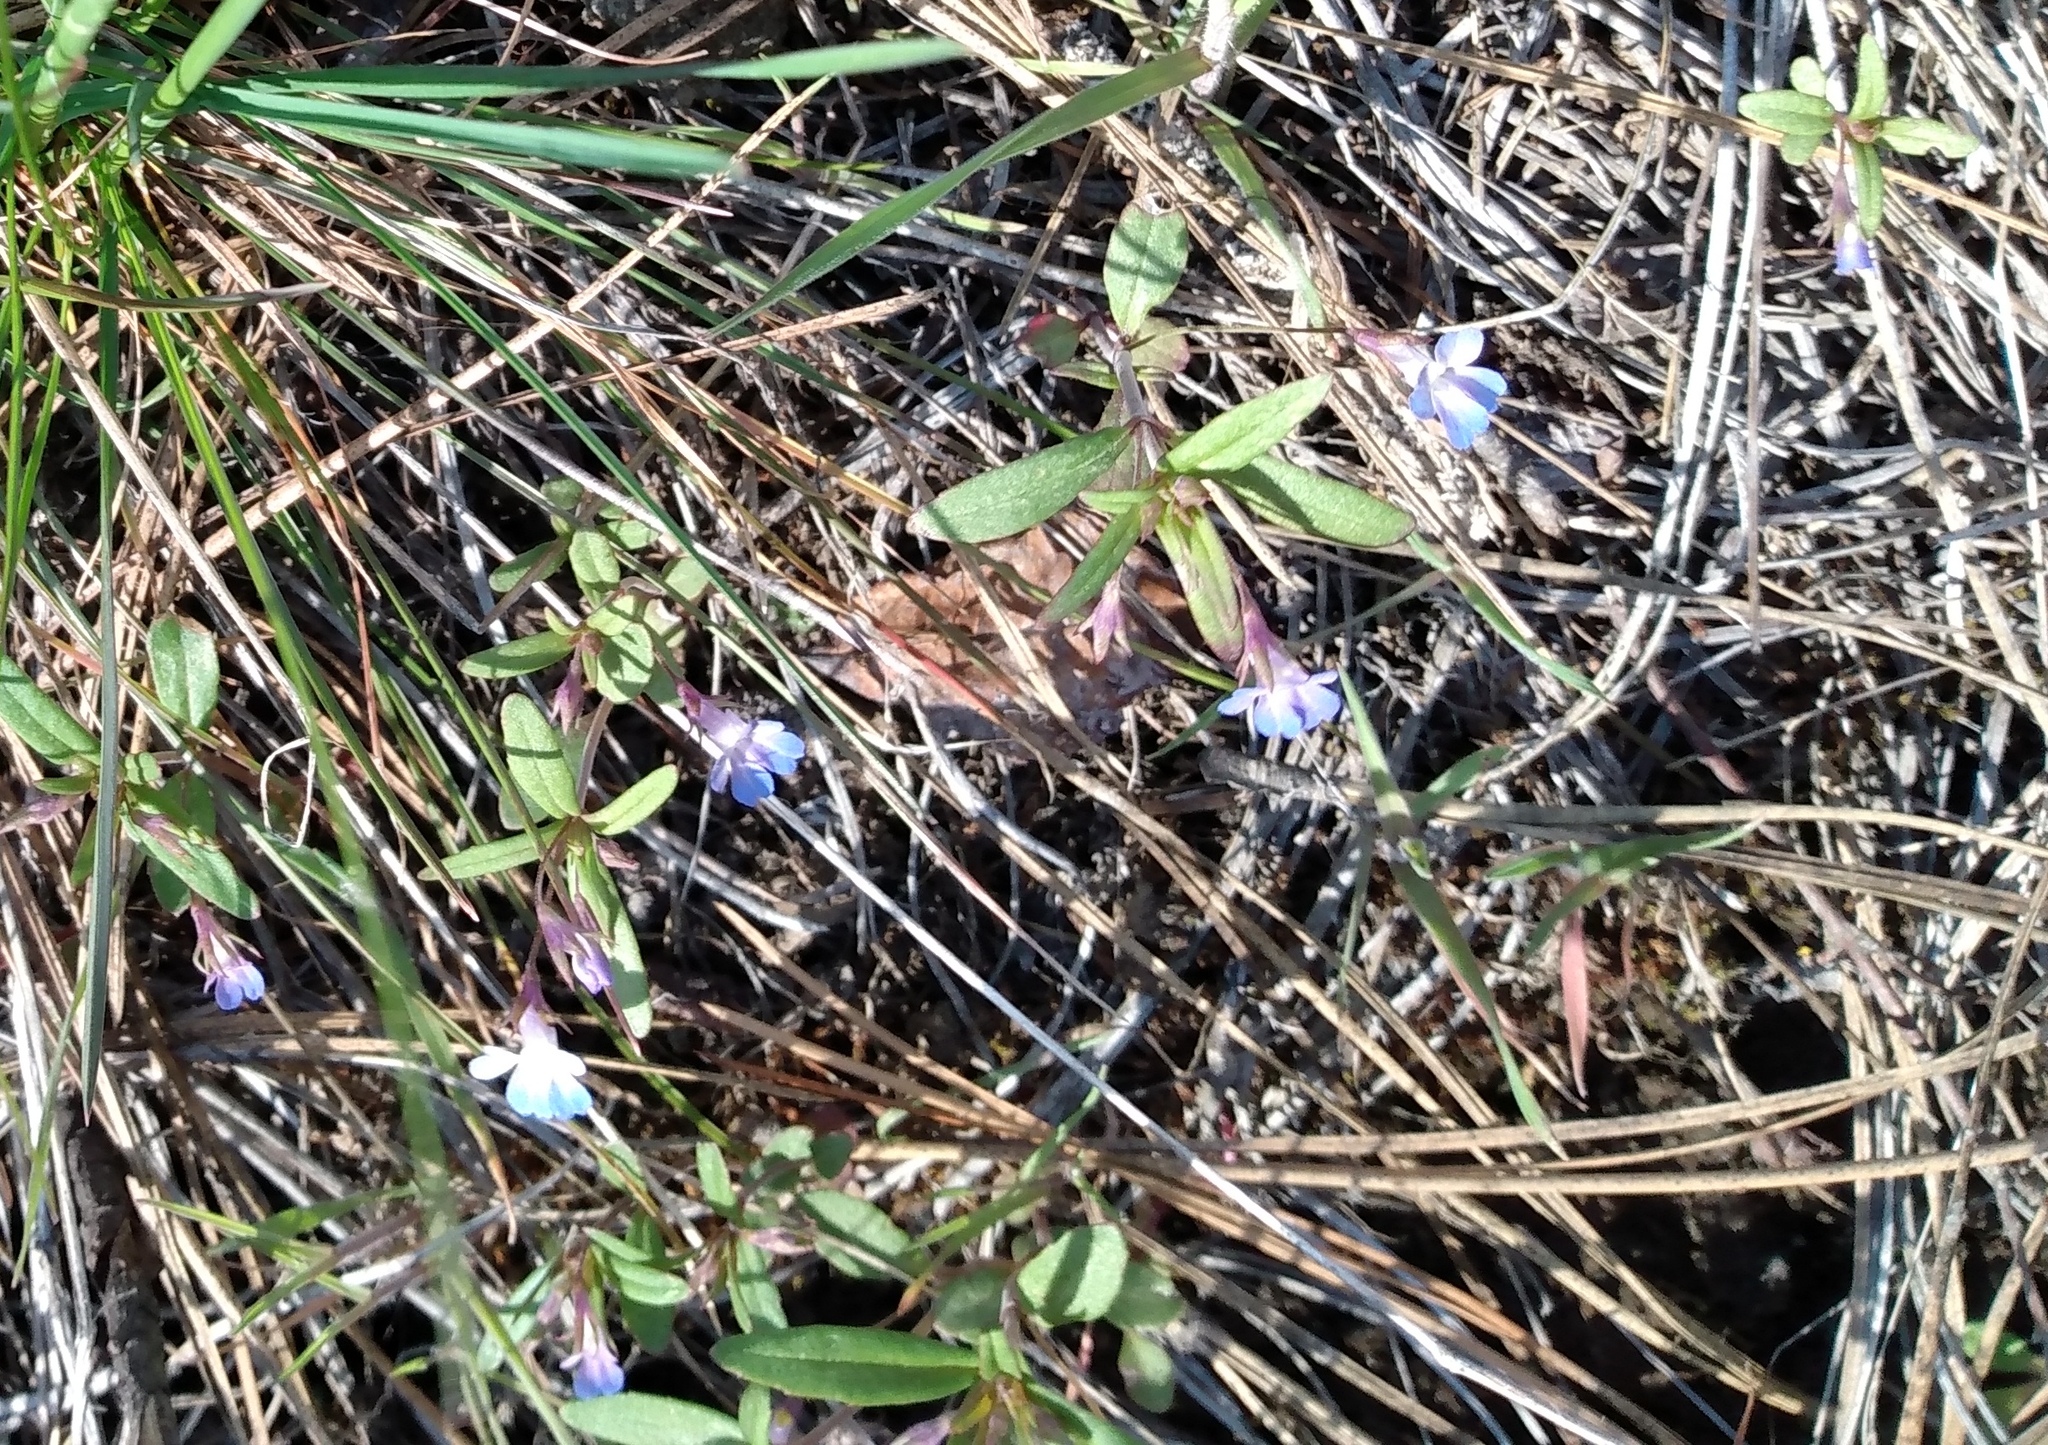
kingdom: Plantae
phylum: Tracheophyta
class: Magnoliopsida
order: Lamiales
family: Plantaginaceae
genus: Collinsia
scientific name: Collinsia parviflora
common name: Blue-lips
